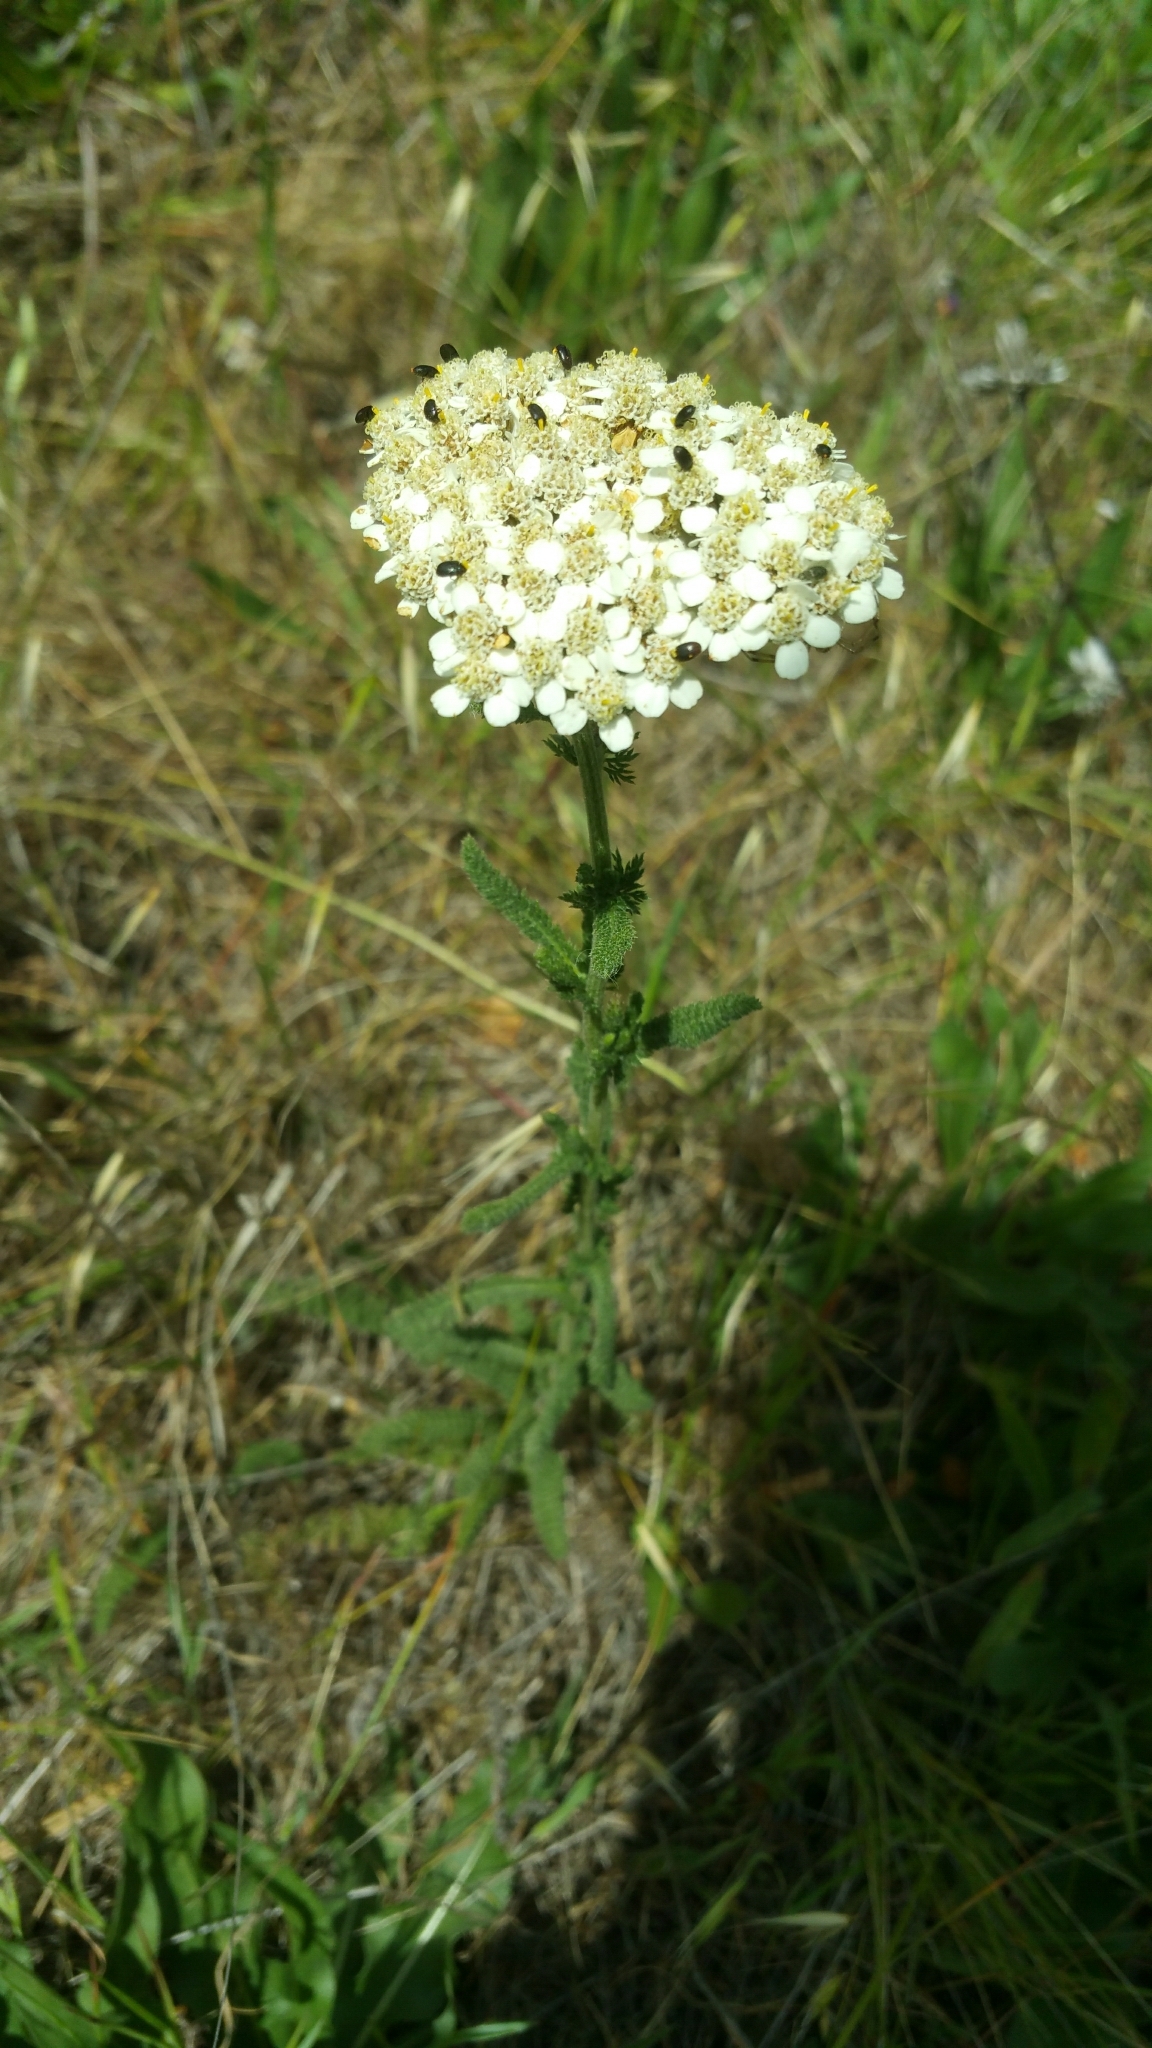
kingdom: Plantae
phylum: Tracheophyta
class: Magnoliopsida
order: Asterales
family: Asteraceae
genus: Achillea
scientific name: Achillea millefolium
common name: Yarrow
